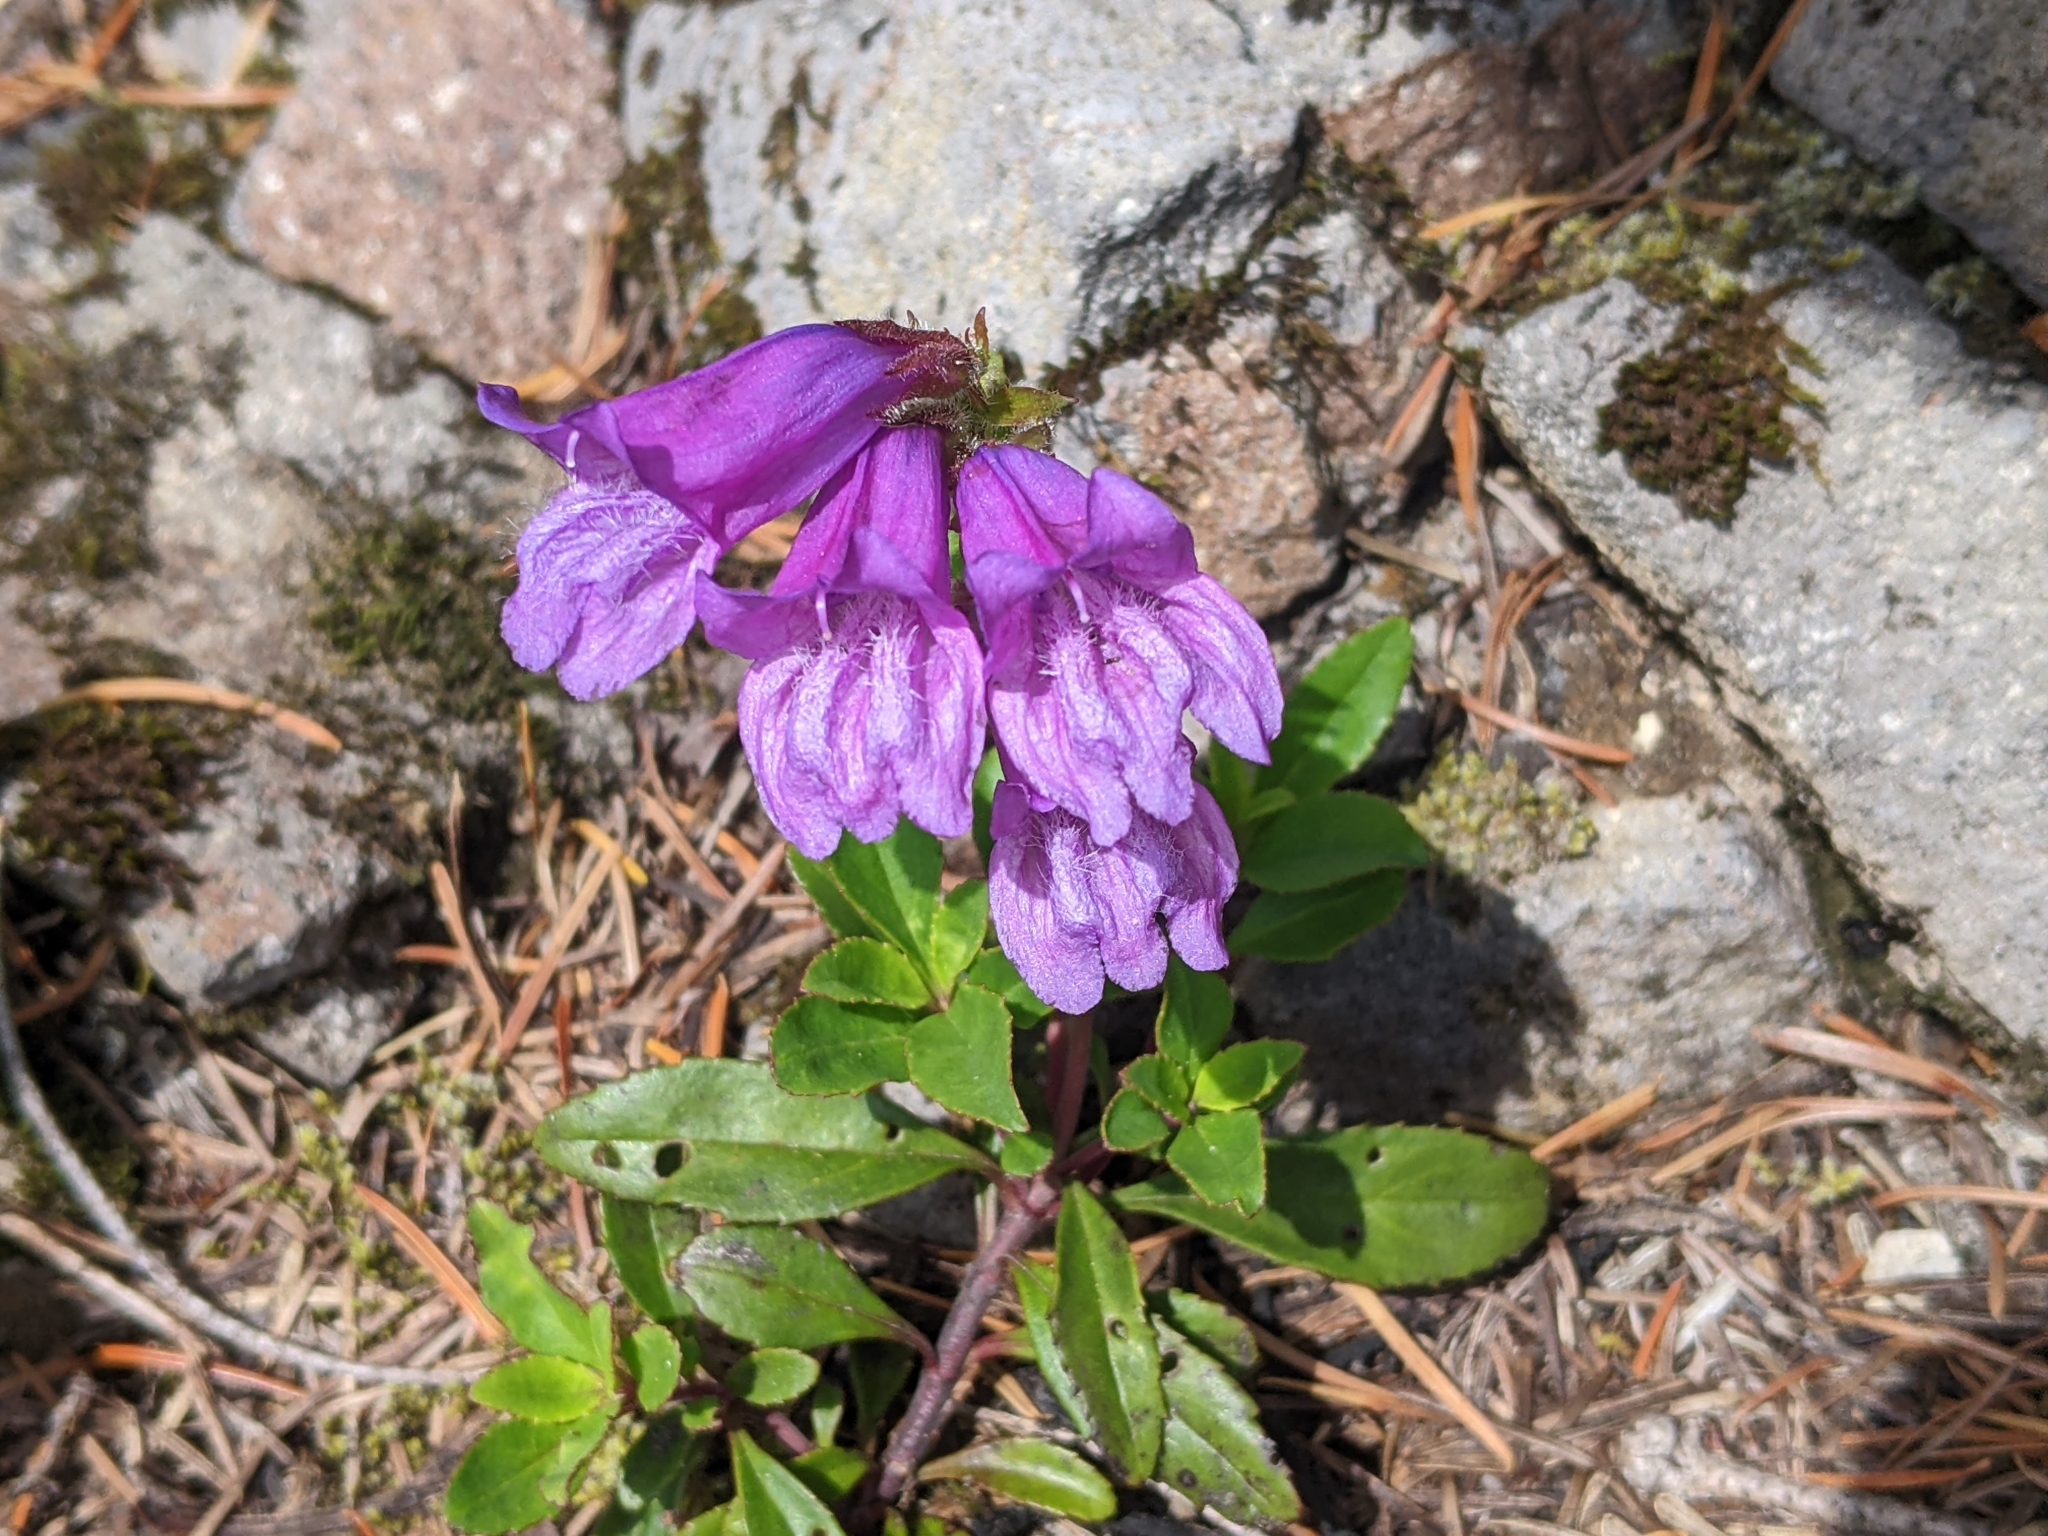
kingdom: Plantae
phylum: Tracheophyta
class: Magnoliopsida
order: Lamiales
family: Plantaginaceae
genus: Penstemon
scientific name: Penstemon cardwellii
